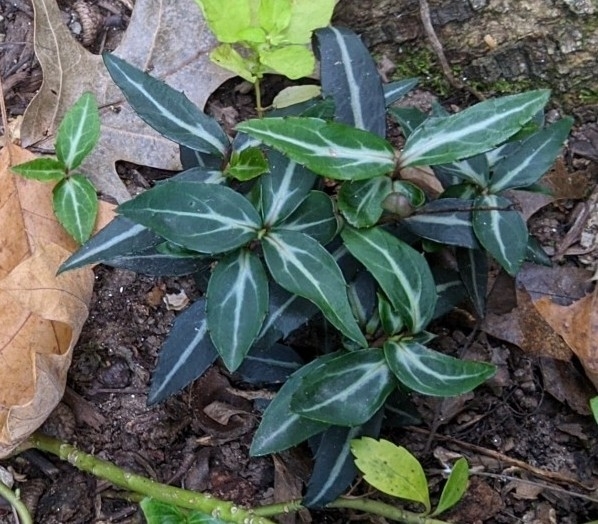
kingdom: Plantae
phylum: Tracheophyta
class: Magnoliopsida
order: Ericales
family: Ericaceae
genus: Chimaphila
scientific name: Chimaphila maculata
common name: Spotted pipsissewa
